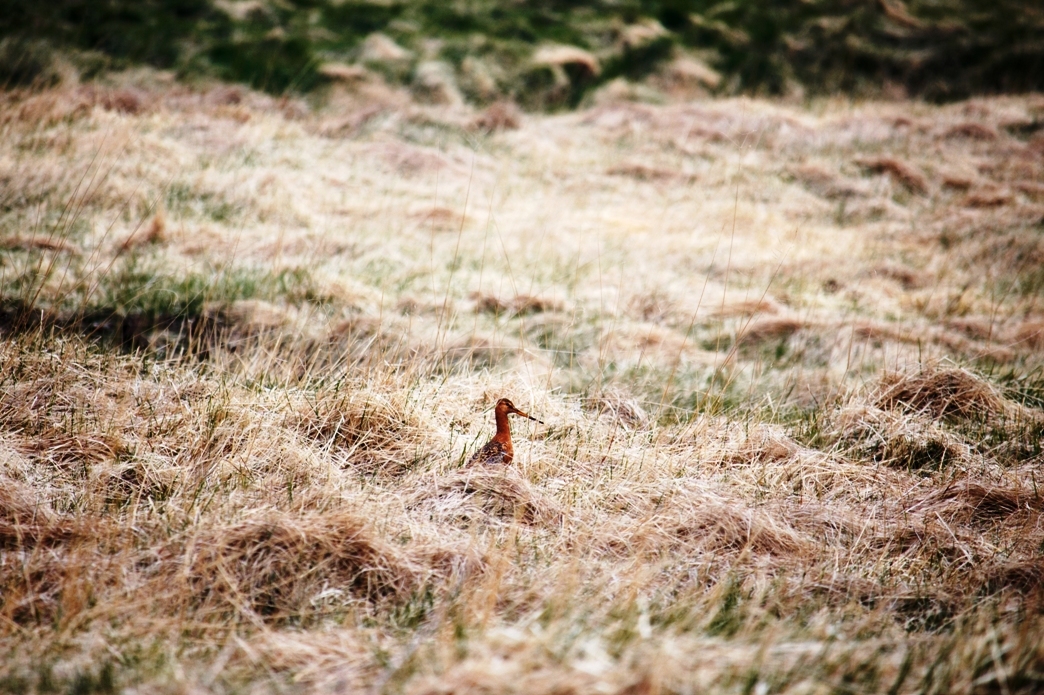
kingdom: Animalia
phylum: Chordata
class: Aves
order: Charadriiformes
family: Scolopacidae
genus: Limosa
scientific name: Limosa limosa
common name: Black-tailed godwit
